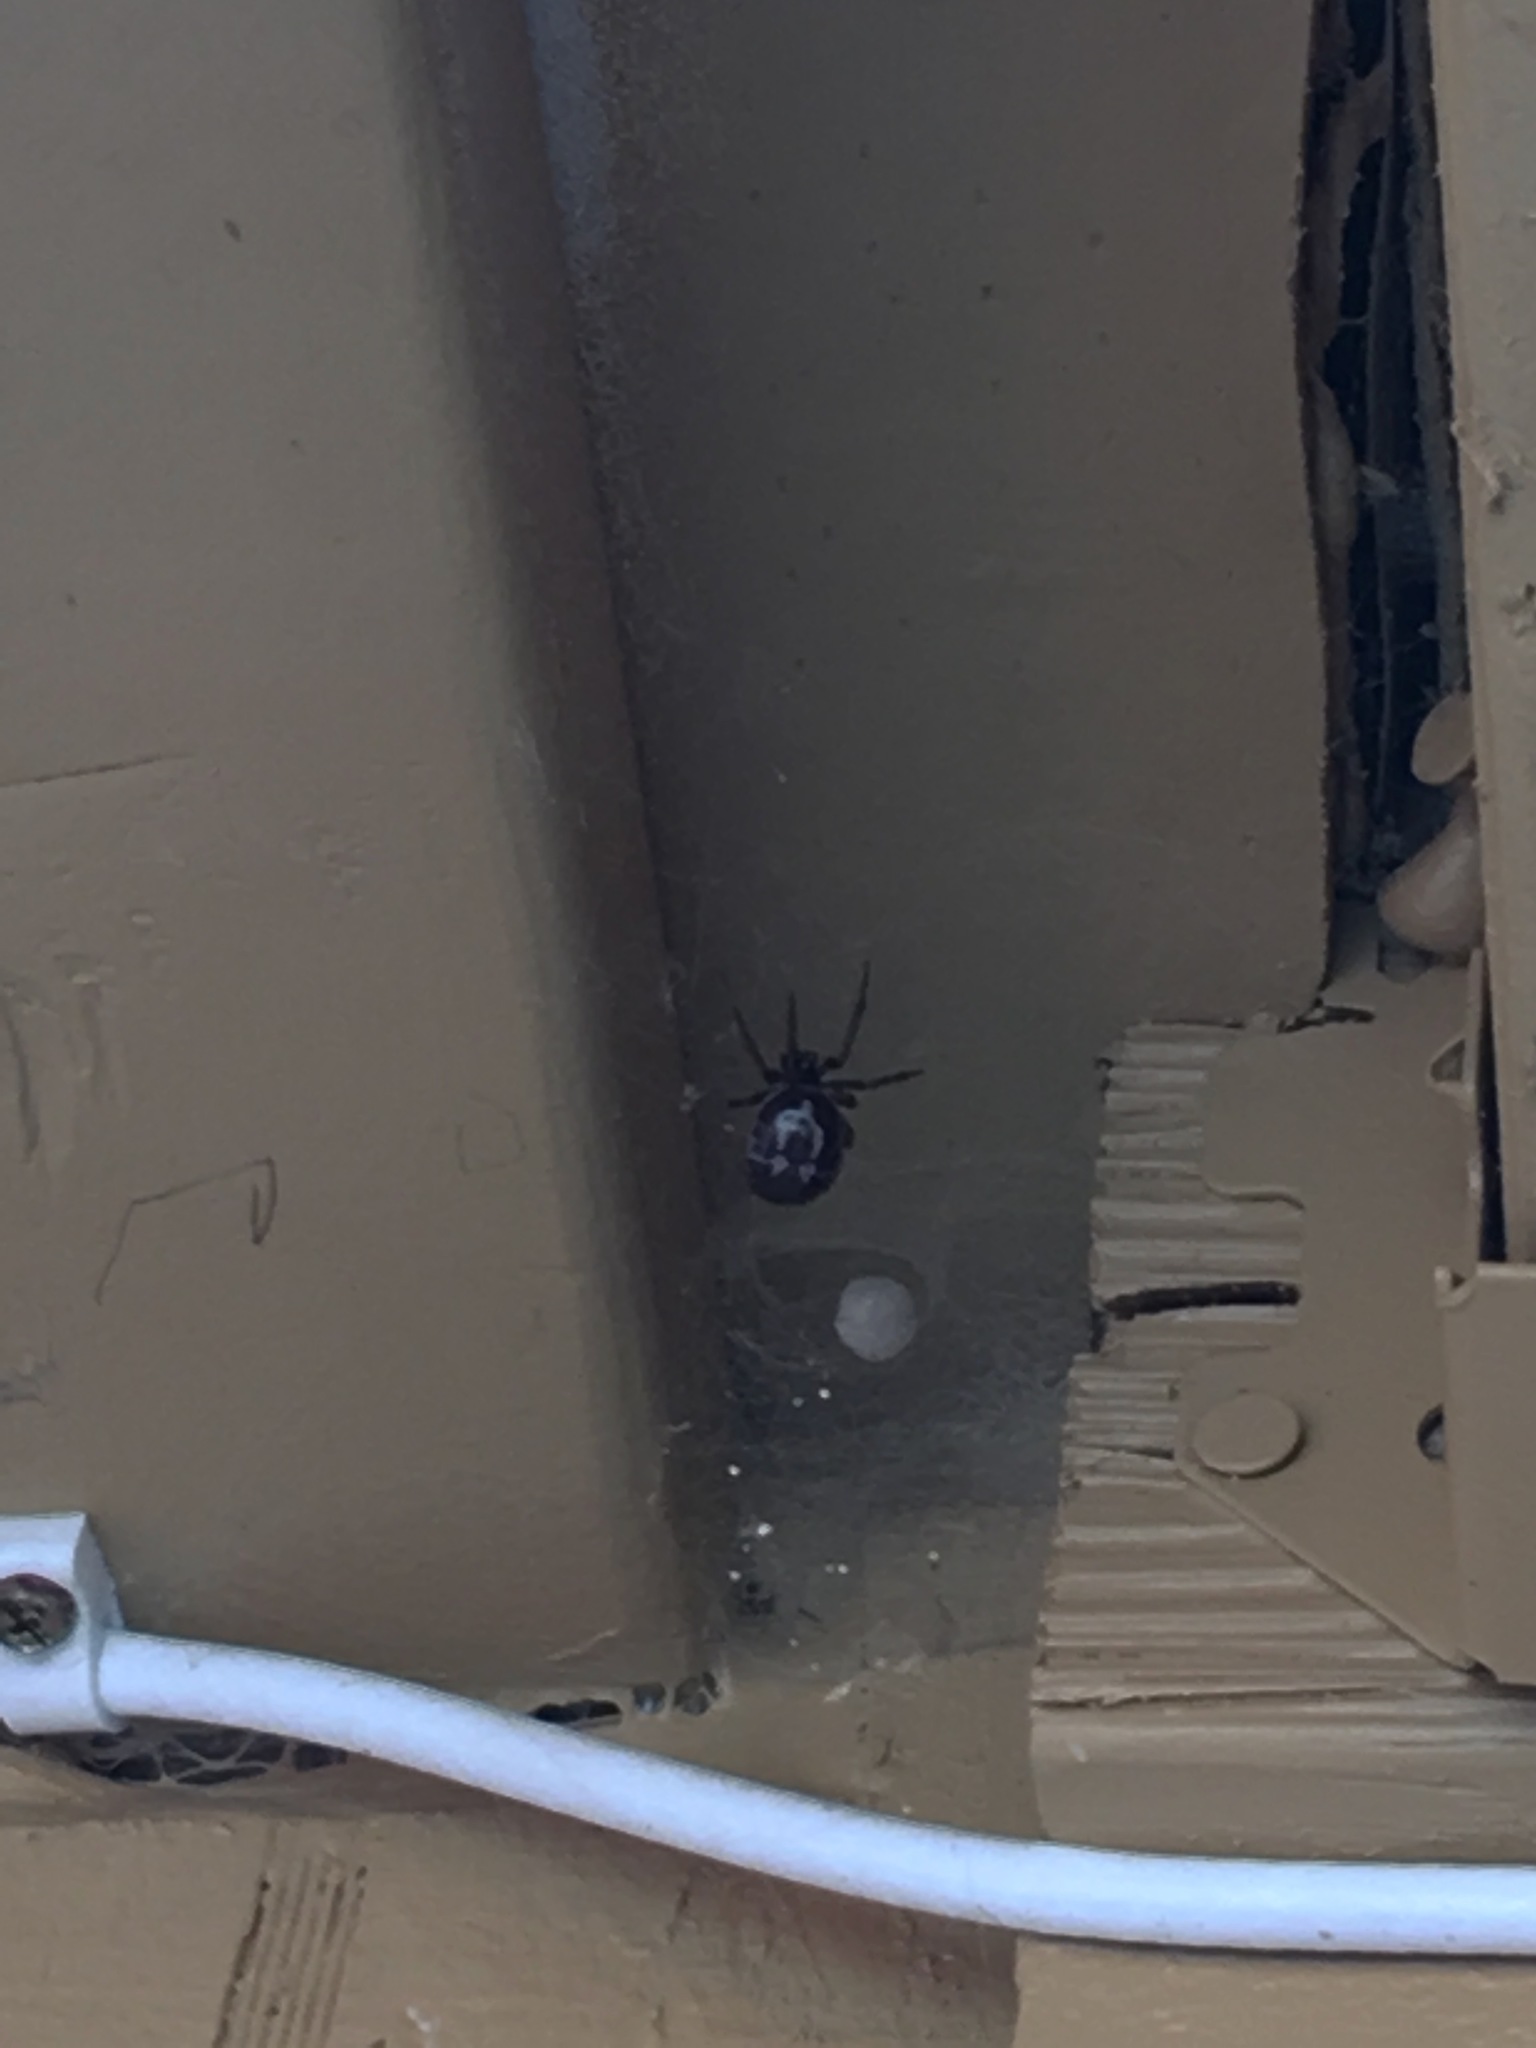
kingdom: Animalia
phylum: Arthropoda
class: Arachnida
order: Araneae
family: Theridiidae
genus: Steatoda
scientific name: Steatoda nobilis
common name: Cobweb weaver
